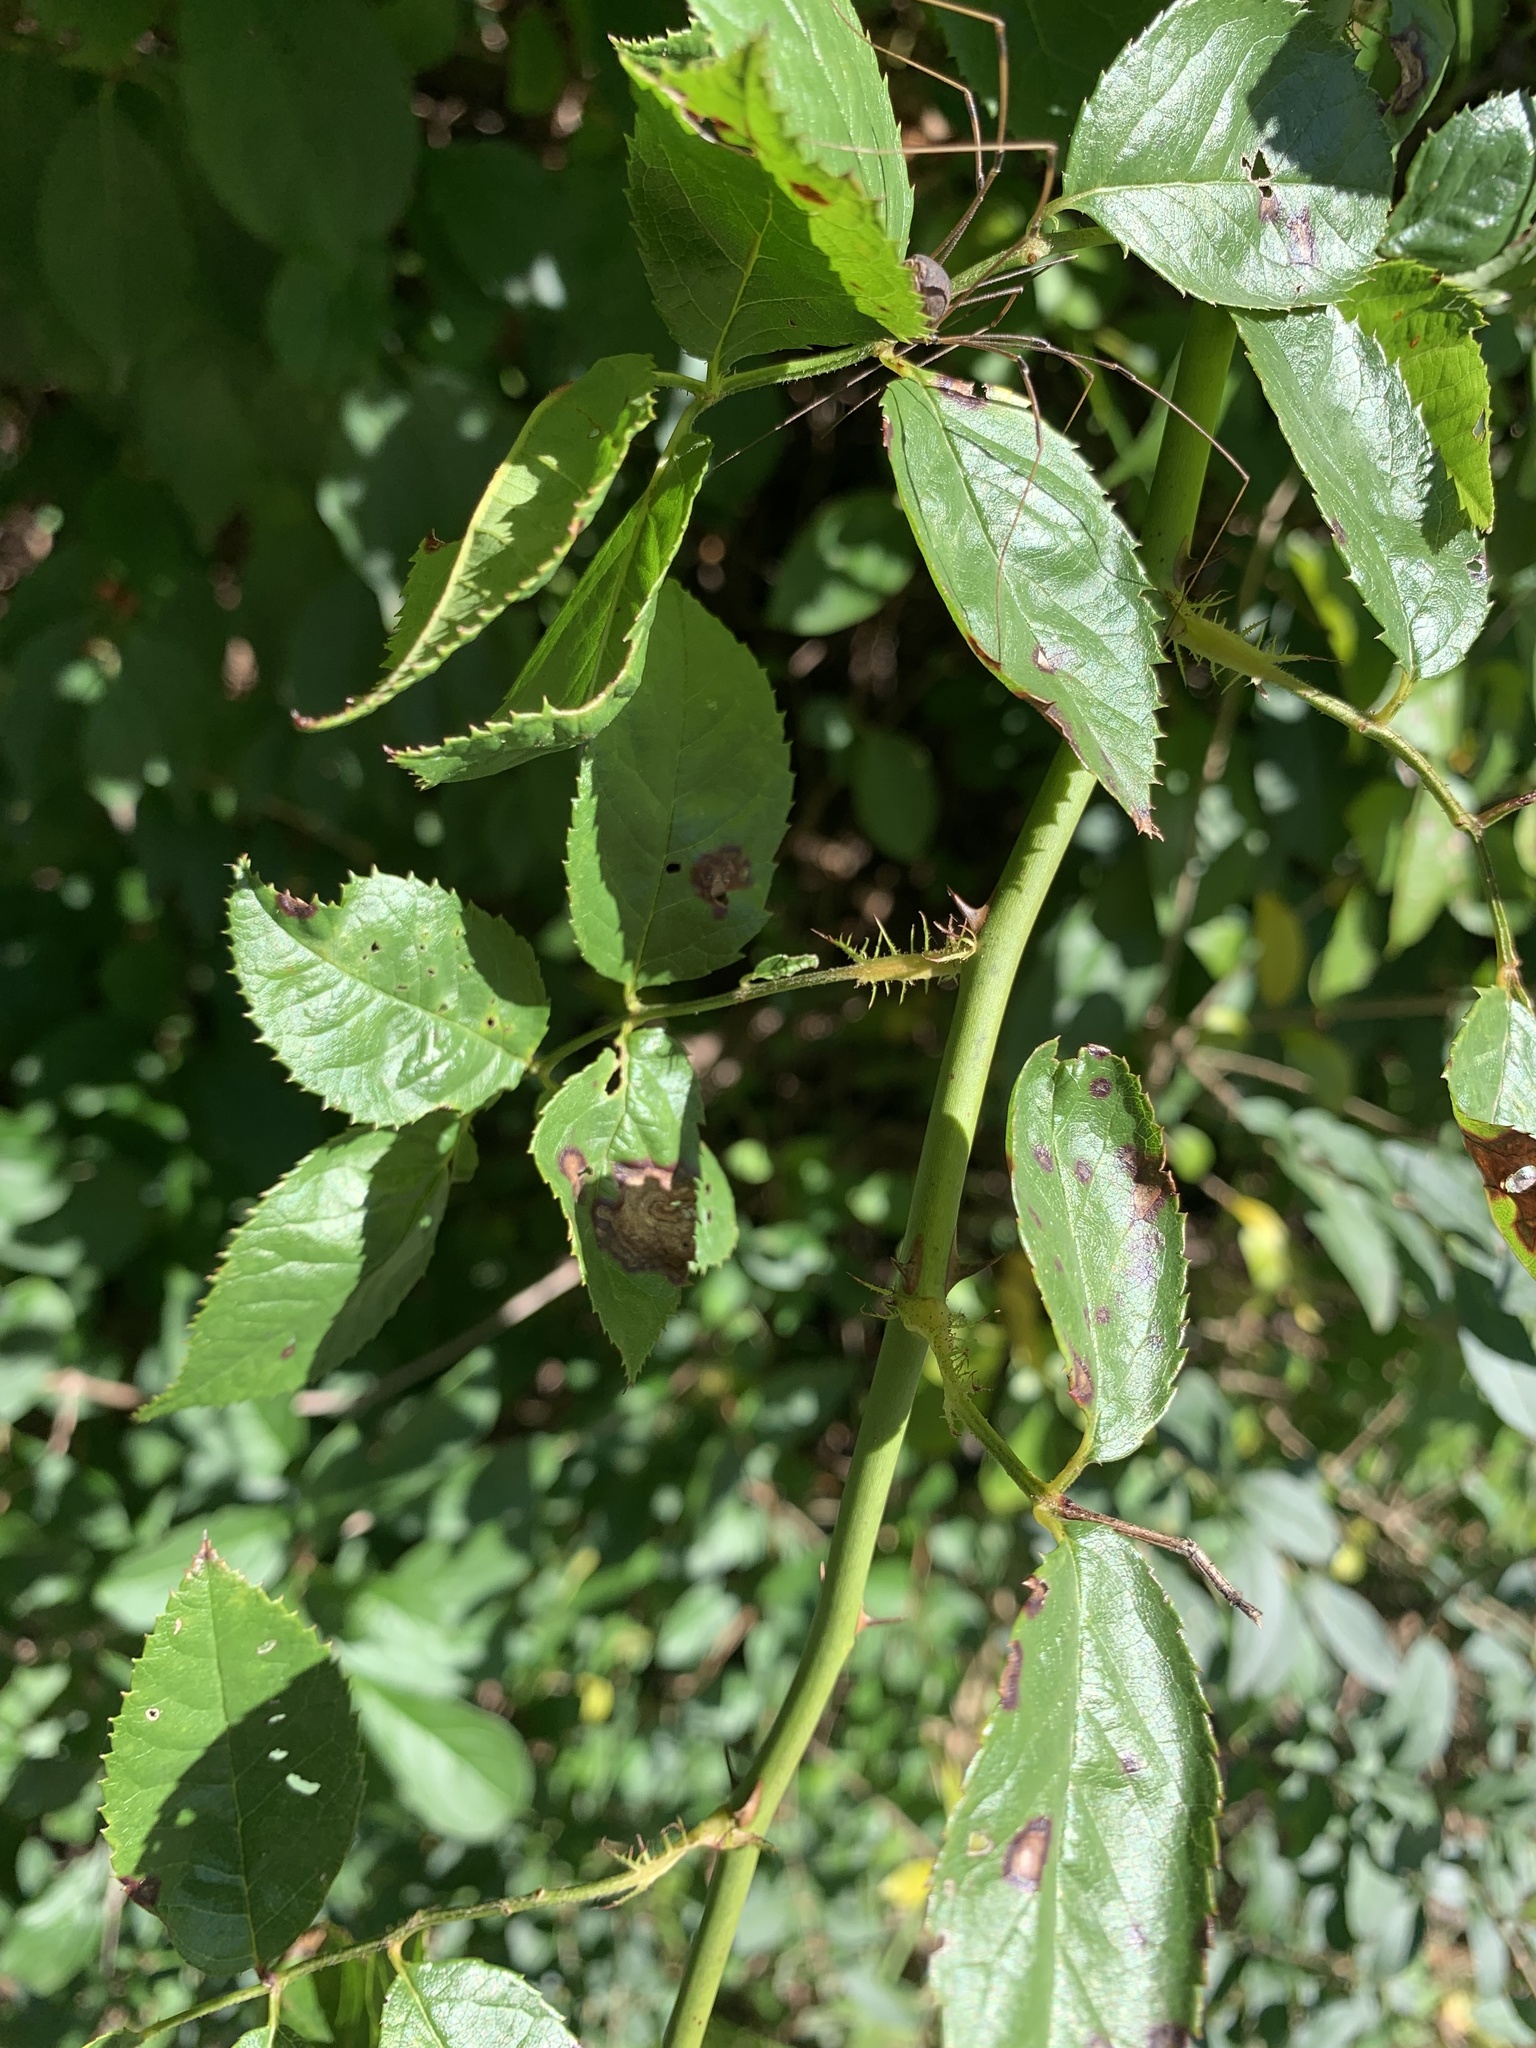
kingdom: Plantae
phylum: Tracheophyta
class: Magnoliopsida
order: Rosales
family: Rosaceae
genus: Rosa
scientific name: Rosa multiflora
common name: Multiflora rose
